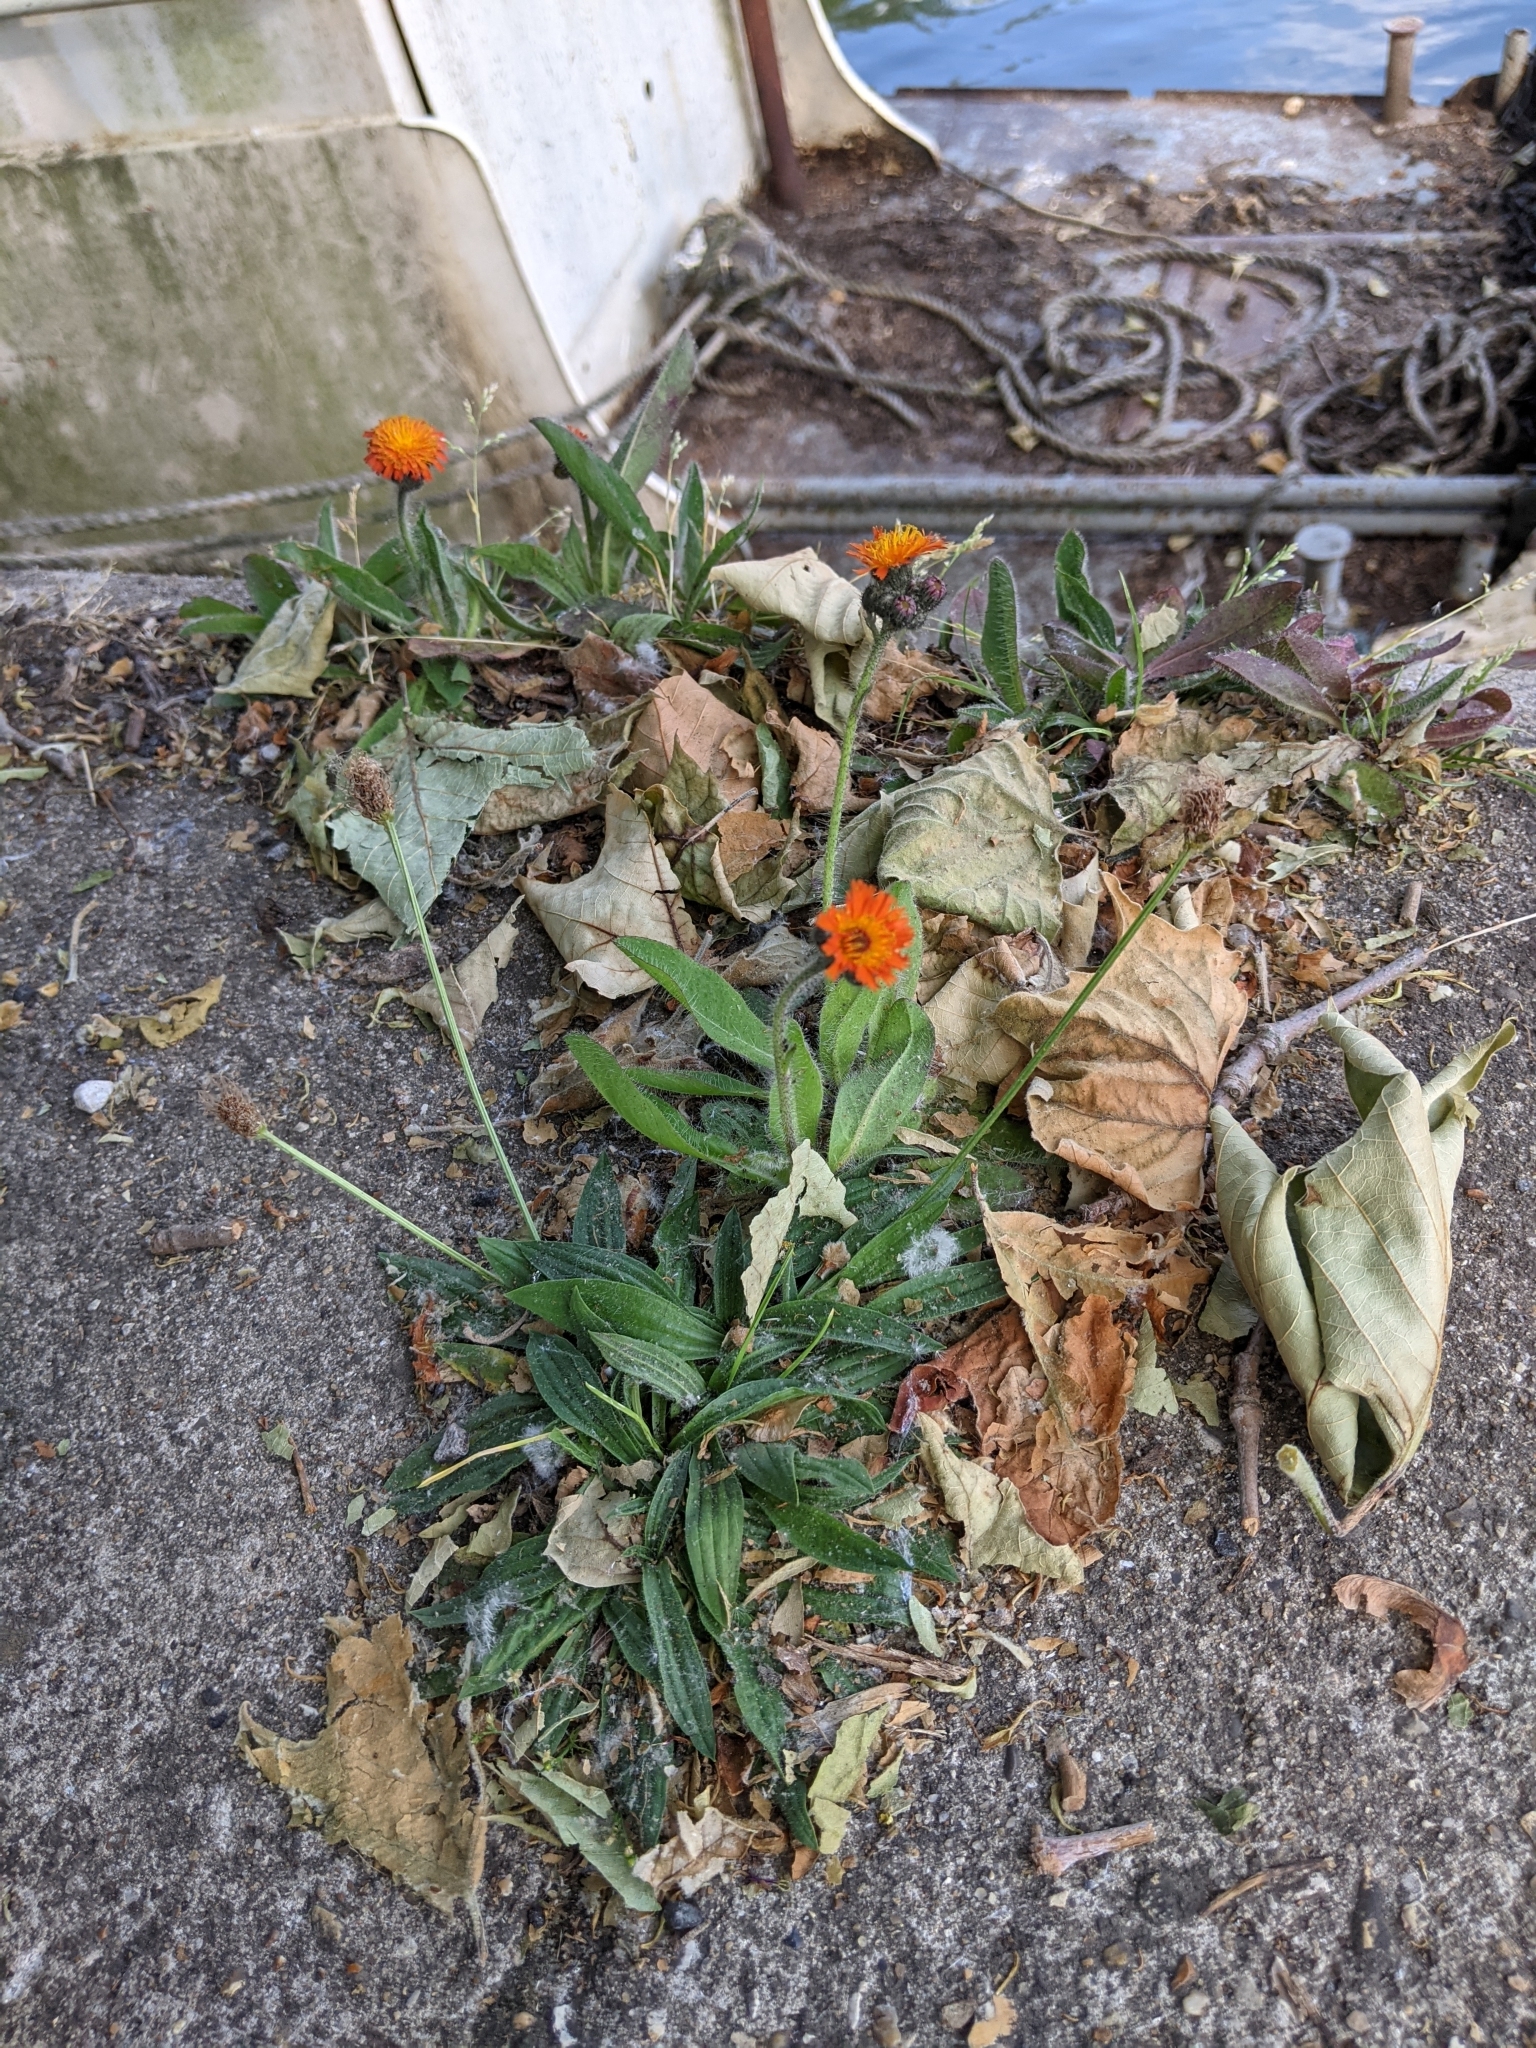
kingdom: Plantae
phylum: Tracheophyta
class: Magnoliopsida
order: Asterales
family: Asteraceae
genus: Pilosella
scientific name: Pilosella aurantiaca
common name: Fox-and-cubs
